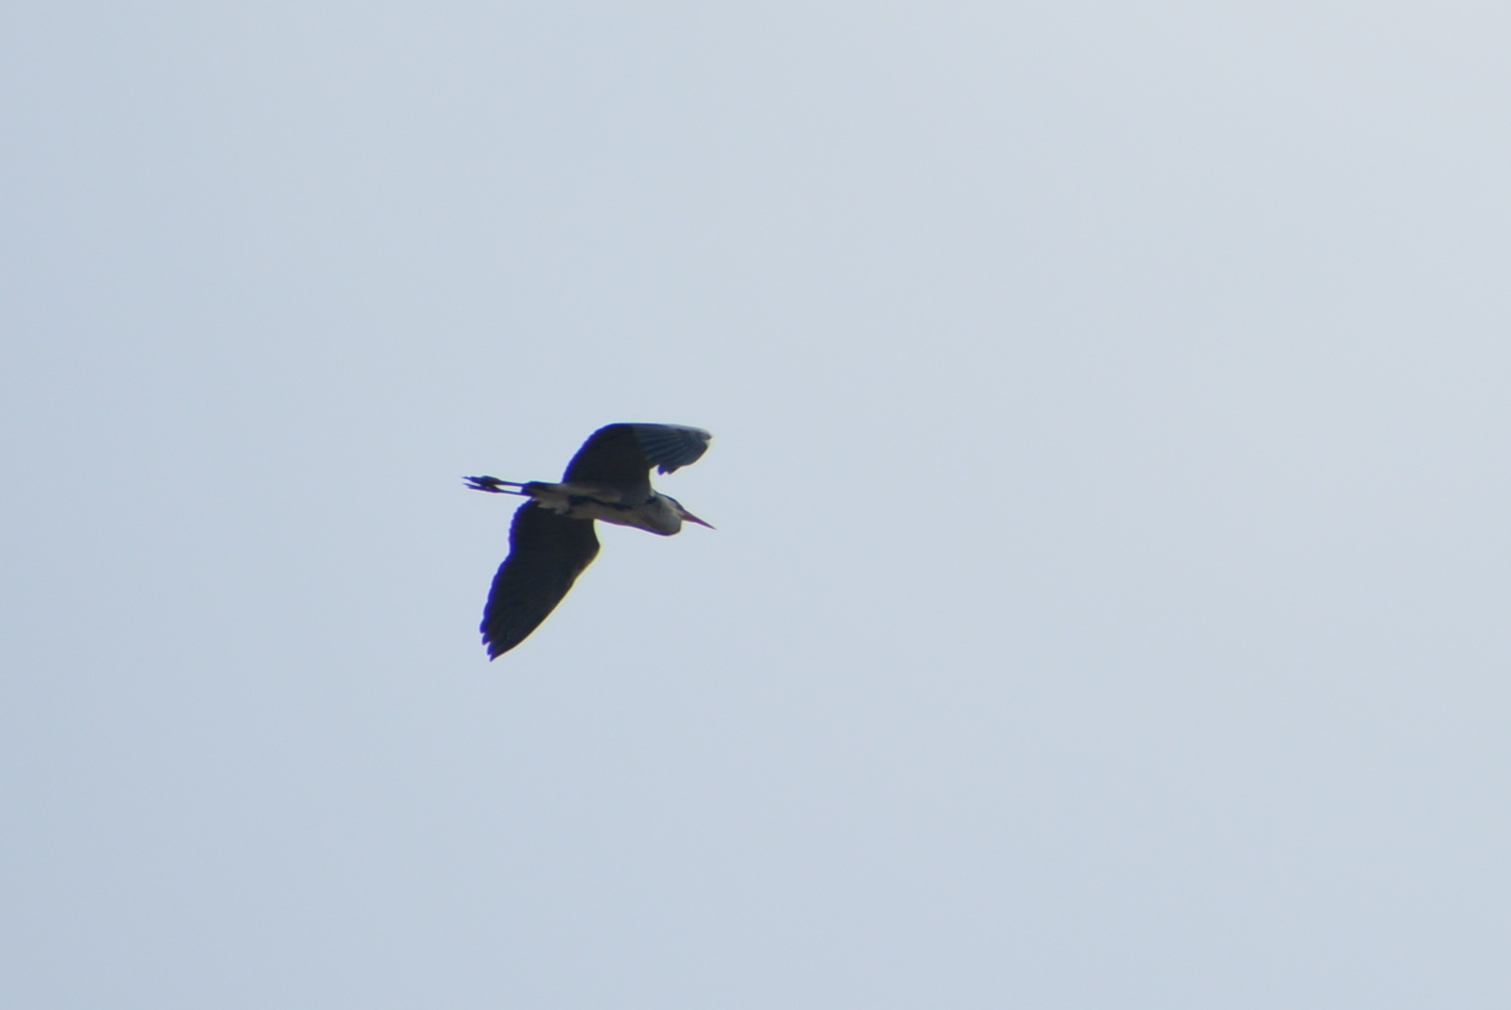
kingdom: Animalia
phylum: Chordata
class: Aves
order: Pelecaniformes
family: Ardeidae
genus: Ardea
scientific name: Ardea cinerea
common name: Grey heron
